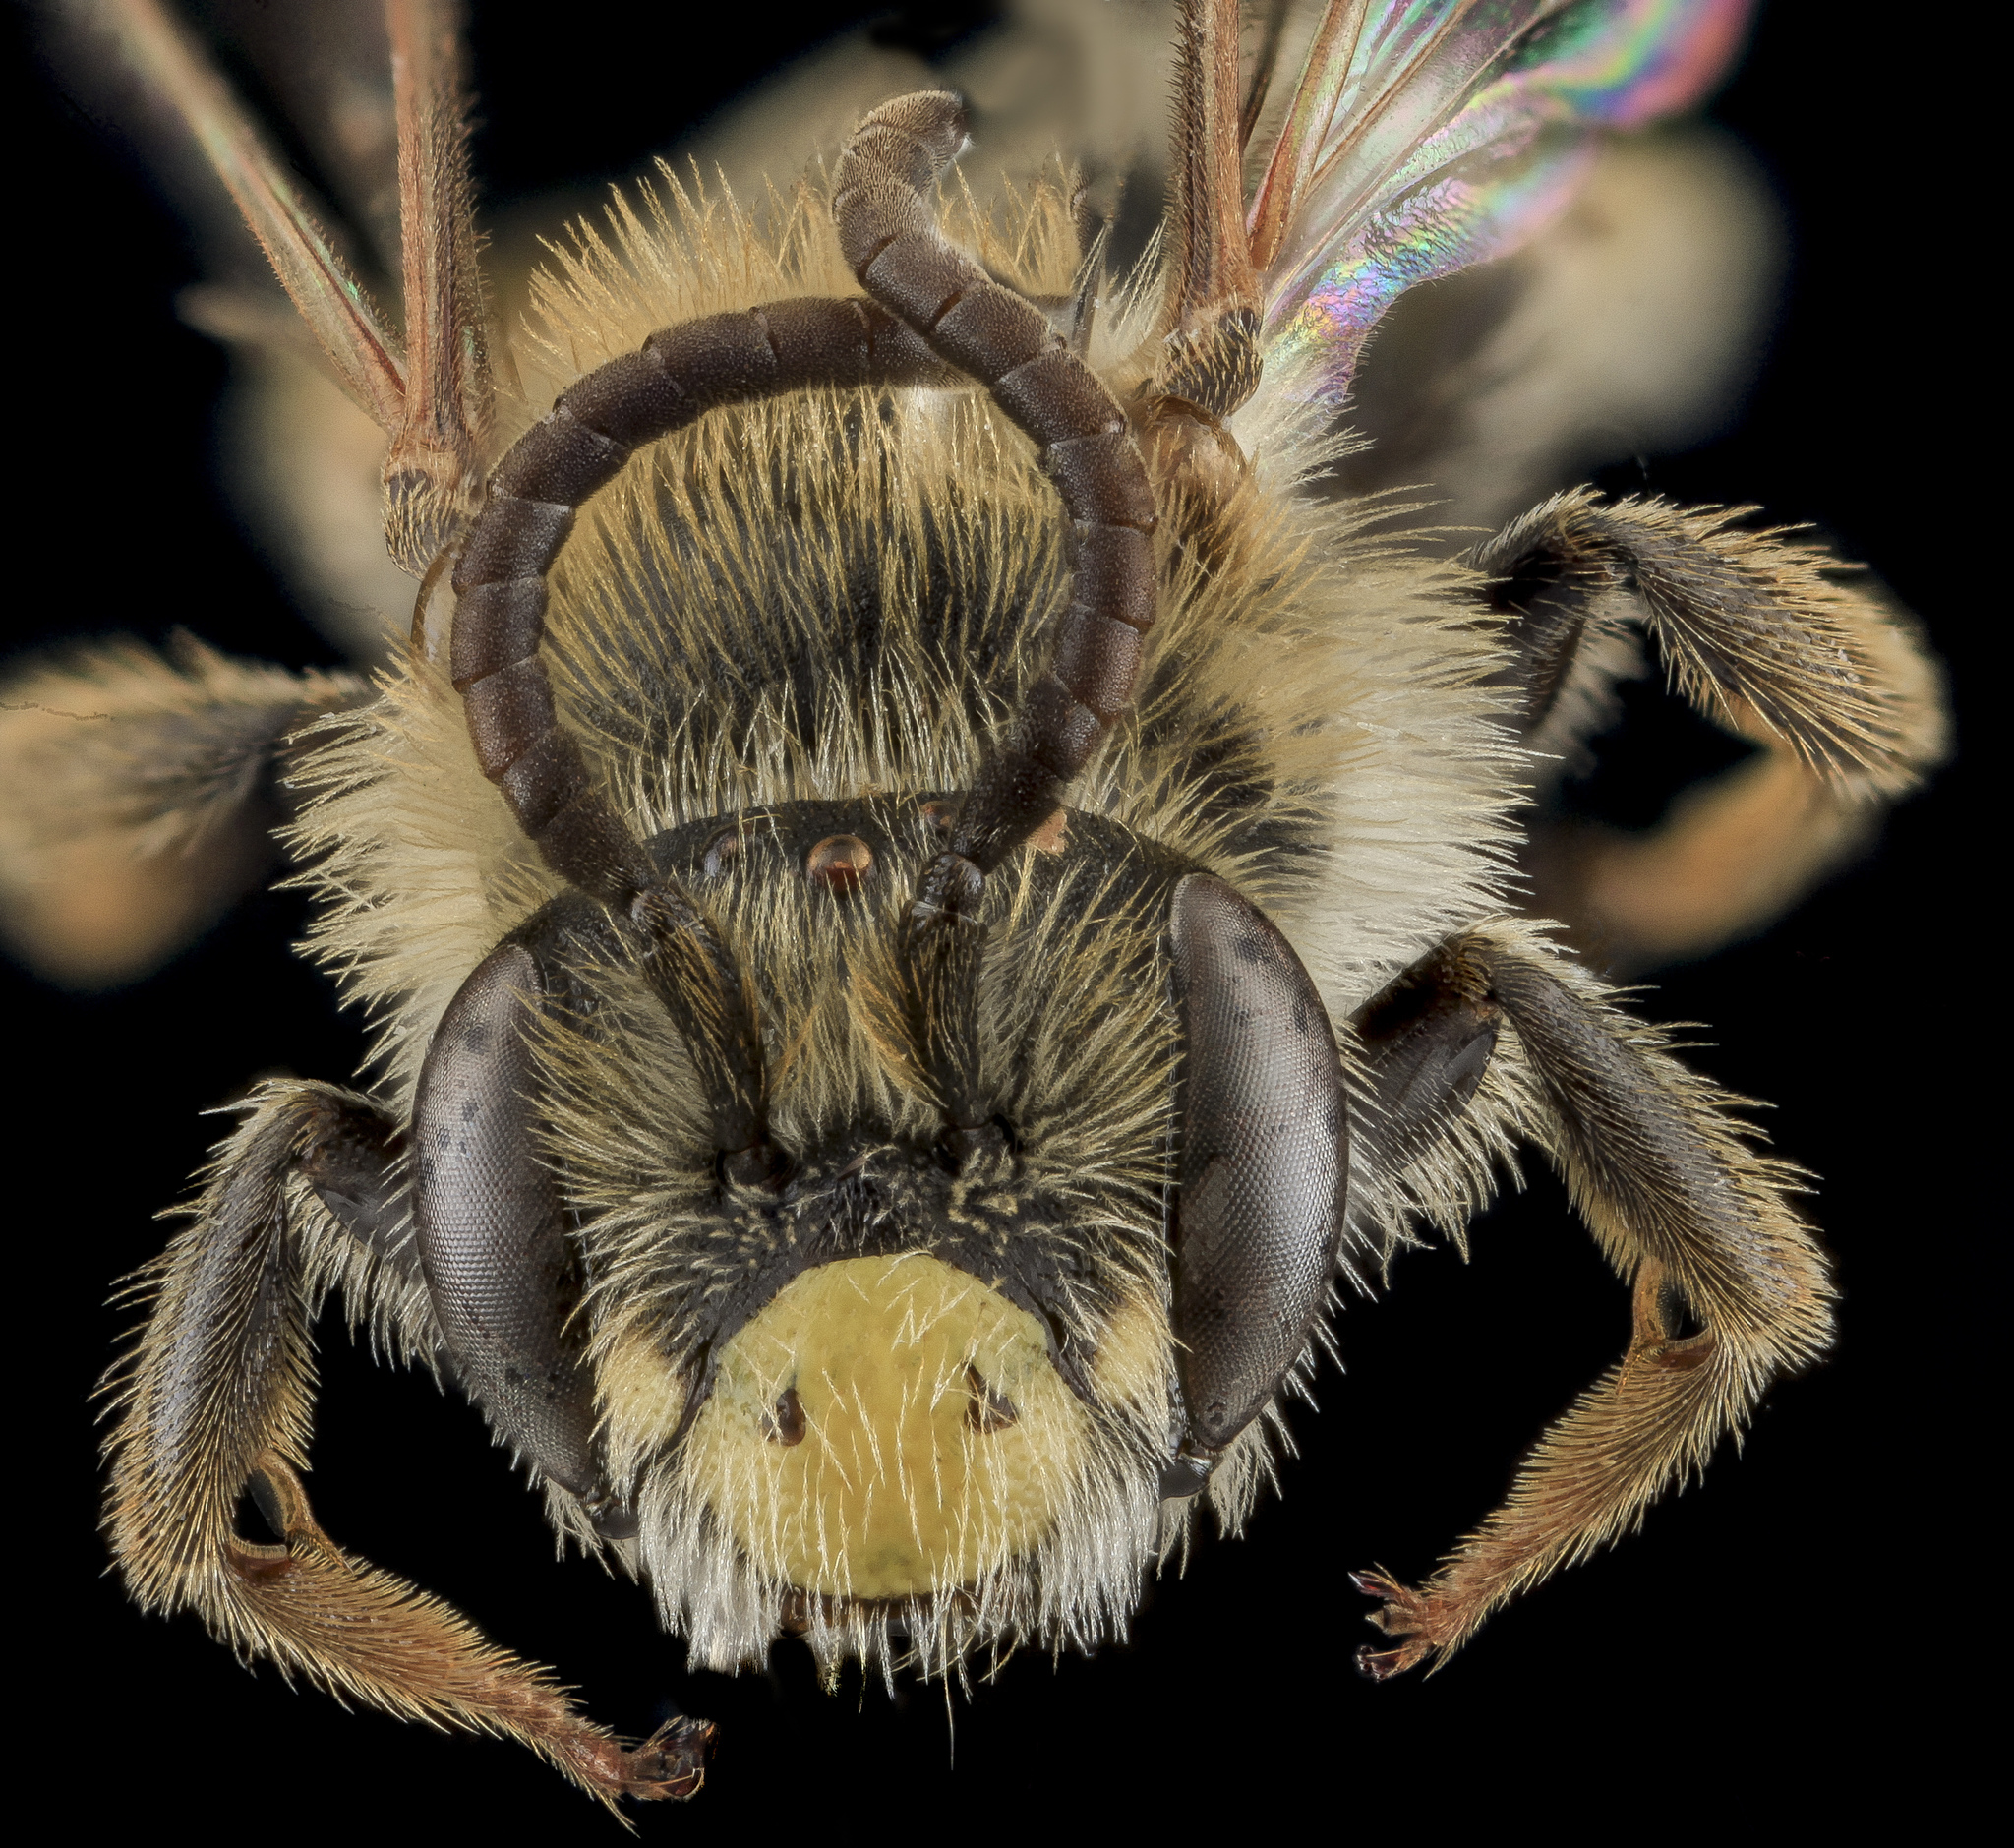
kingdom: Animalia
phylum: Arthropoda
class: Insecta
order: Hymenoptera
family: Andrenidae
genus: Andrena
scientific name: Andrena cragini
